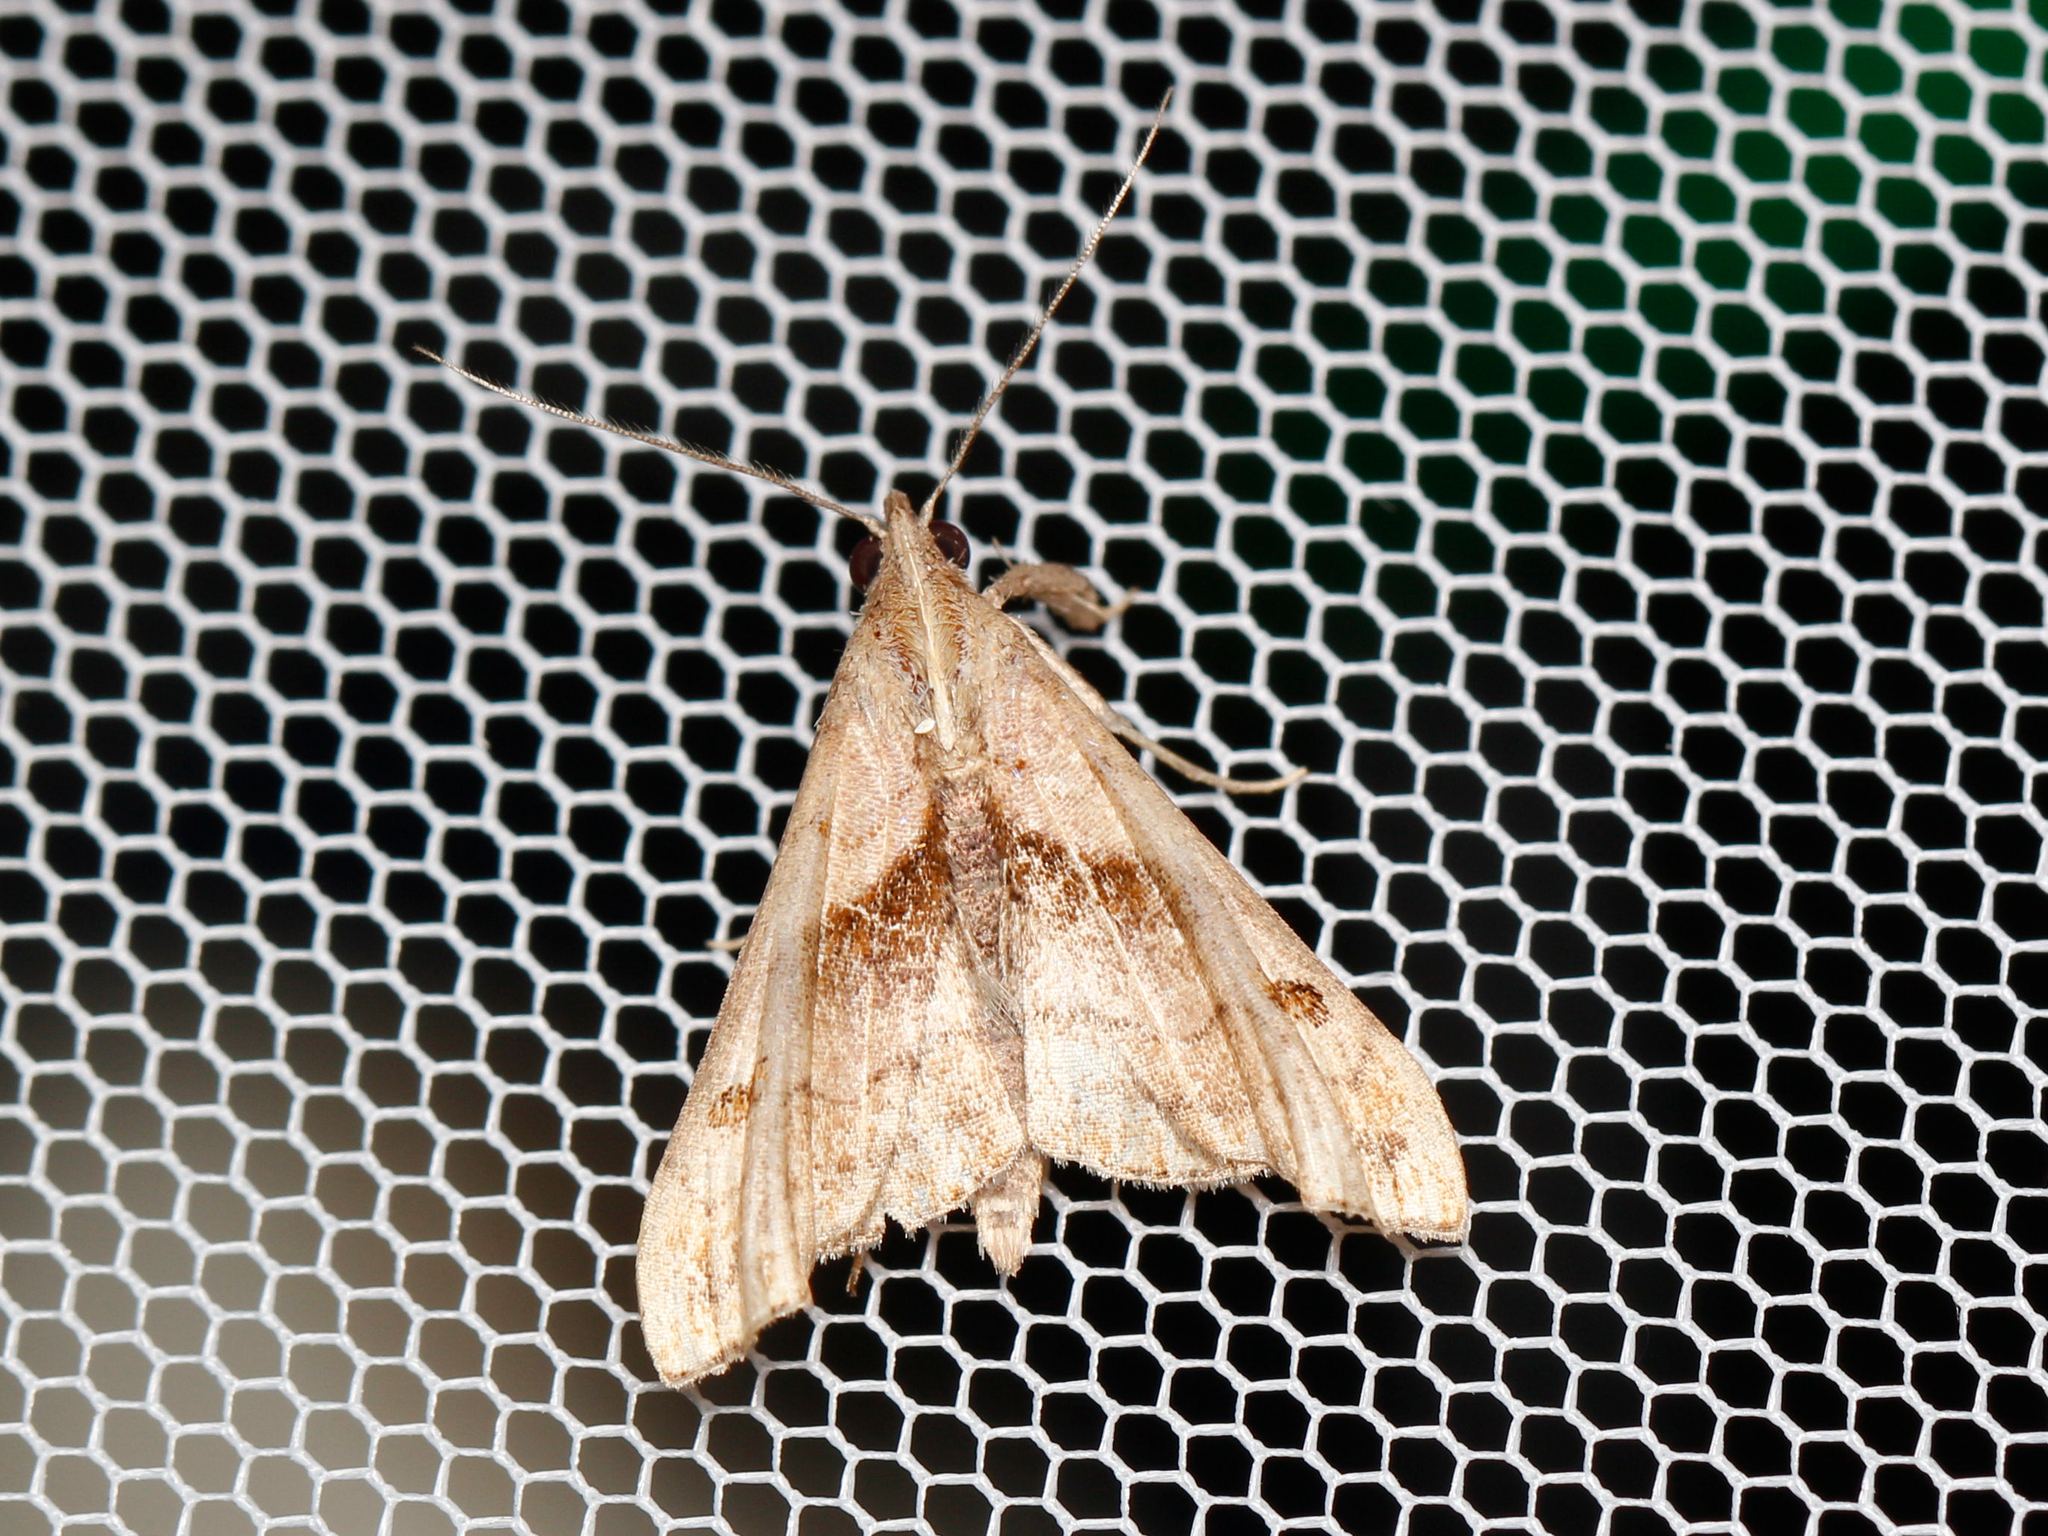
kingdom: Animalia
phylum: Arthropoda
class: Insecta
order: Lepidoptera
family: Erebidae
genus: Palthis
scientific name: Palthis angulalis
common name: Dark-spotted palthis moth
